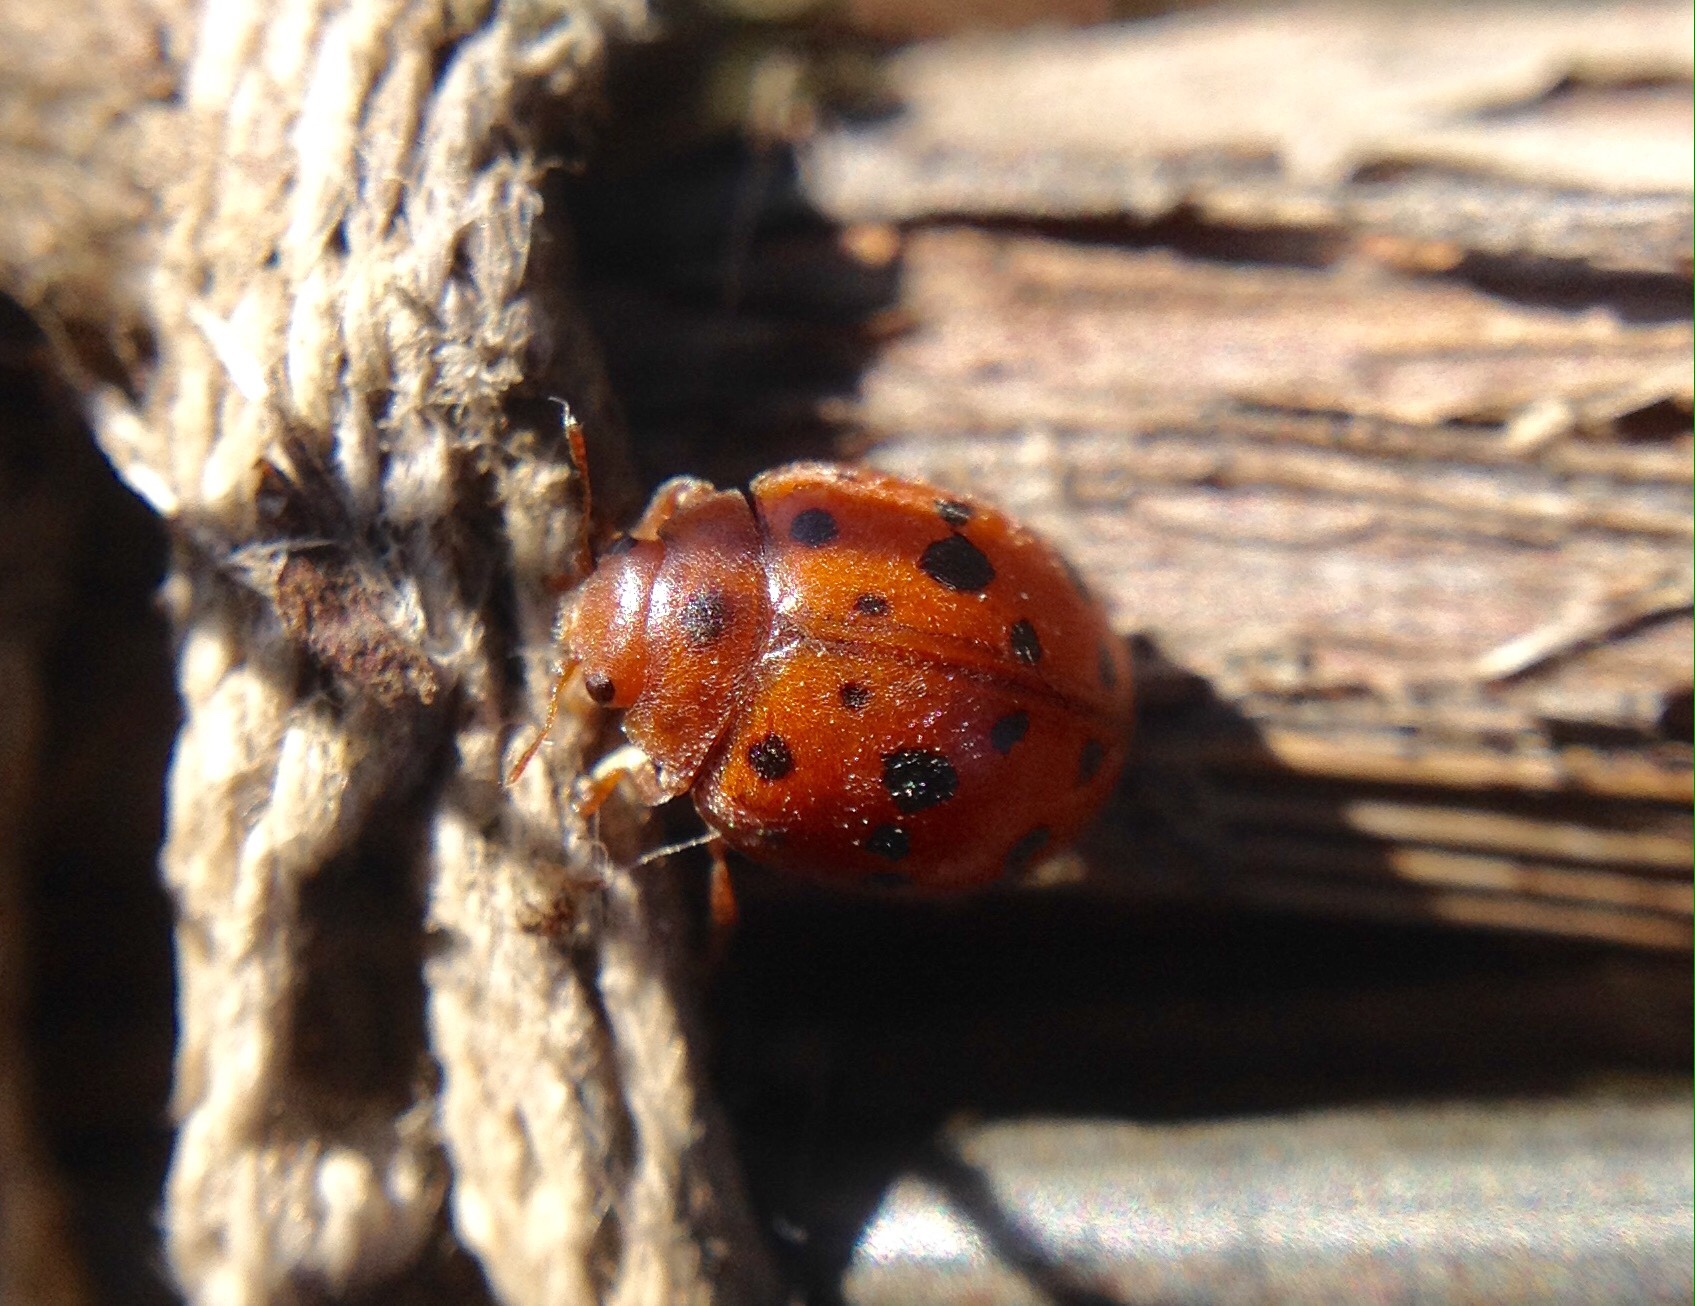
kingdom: Animalia
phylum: Arthropoda
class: Insecta
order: Coleoptera
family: Coccinellidae
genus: Subcoccinella
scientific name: Subcoccinella vigintiquatuorpunctata
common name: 24-spot ladybird
